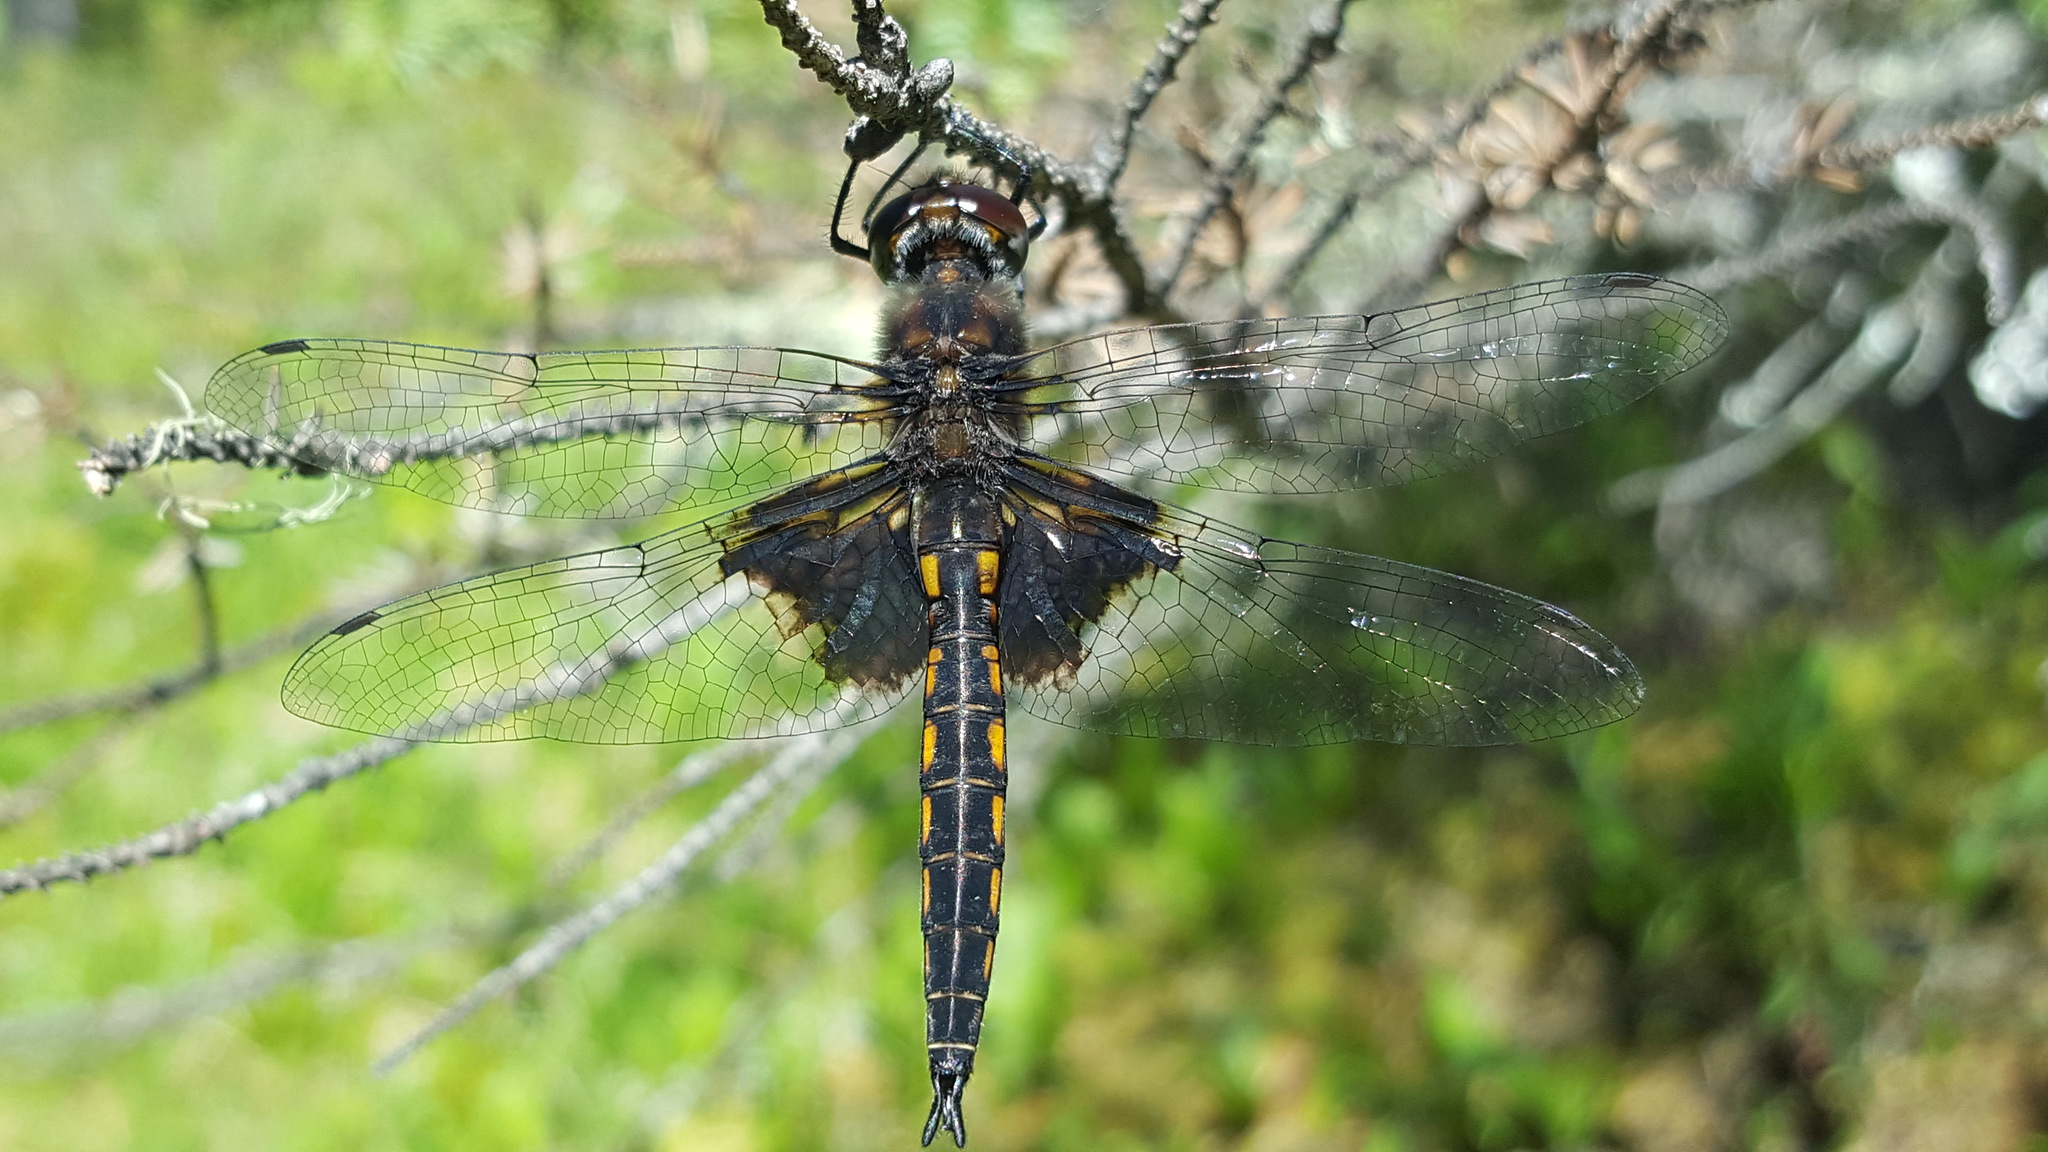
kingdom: Animalia
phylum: Arthropoda
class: Insecta
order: Odonata
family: Corduliidae
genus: Epitheca
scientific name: Epitheca cynosura
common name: Common baskettail
